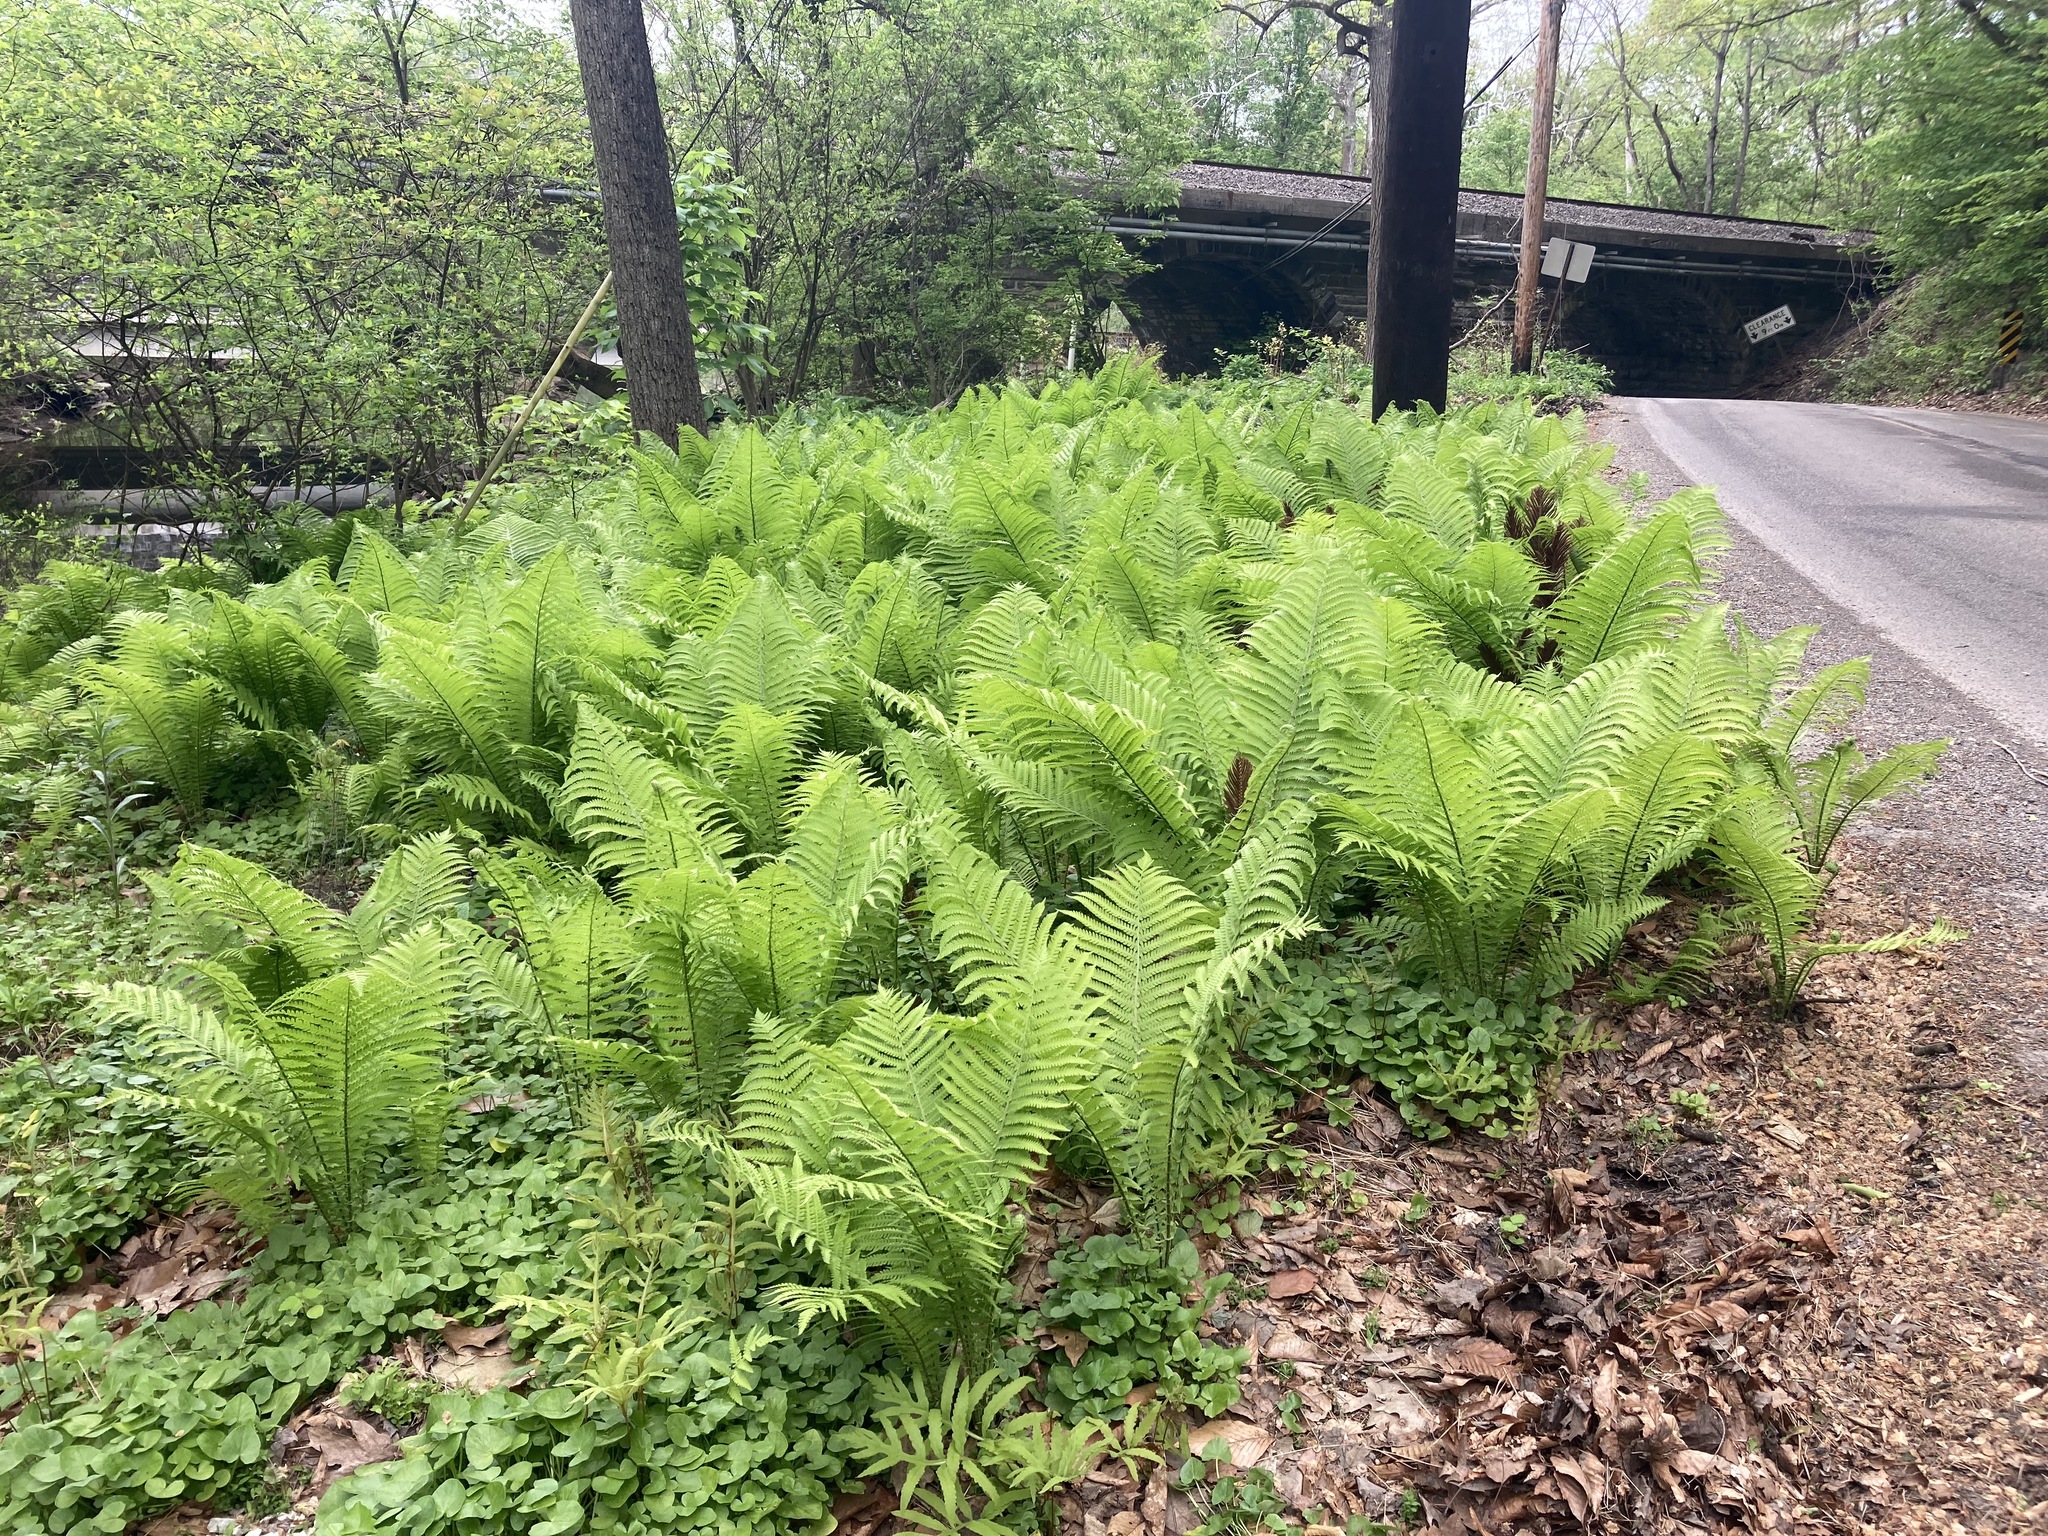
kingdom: Plantae
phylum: Tracheophyta
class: Polypodiopsida
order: Polypodiales
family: Onocleaceae
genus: Matteuccia
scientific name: Matteuccia struthiopteris
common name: Ostrich fern
